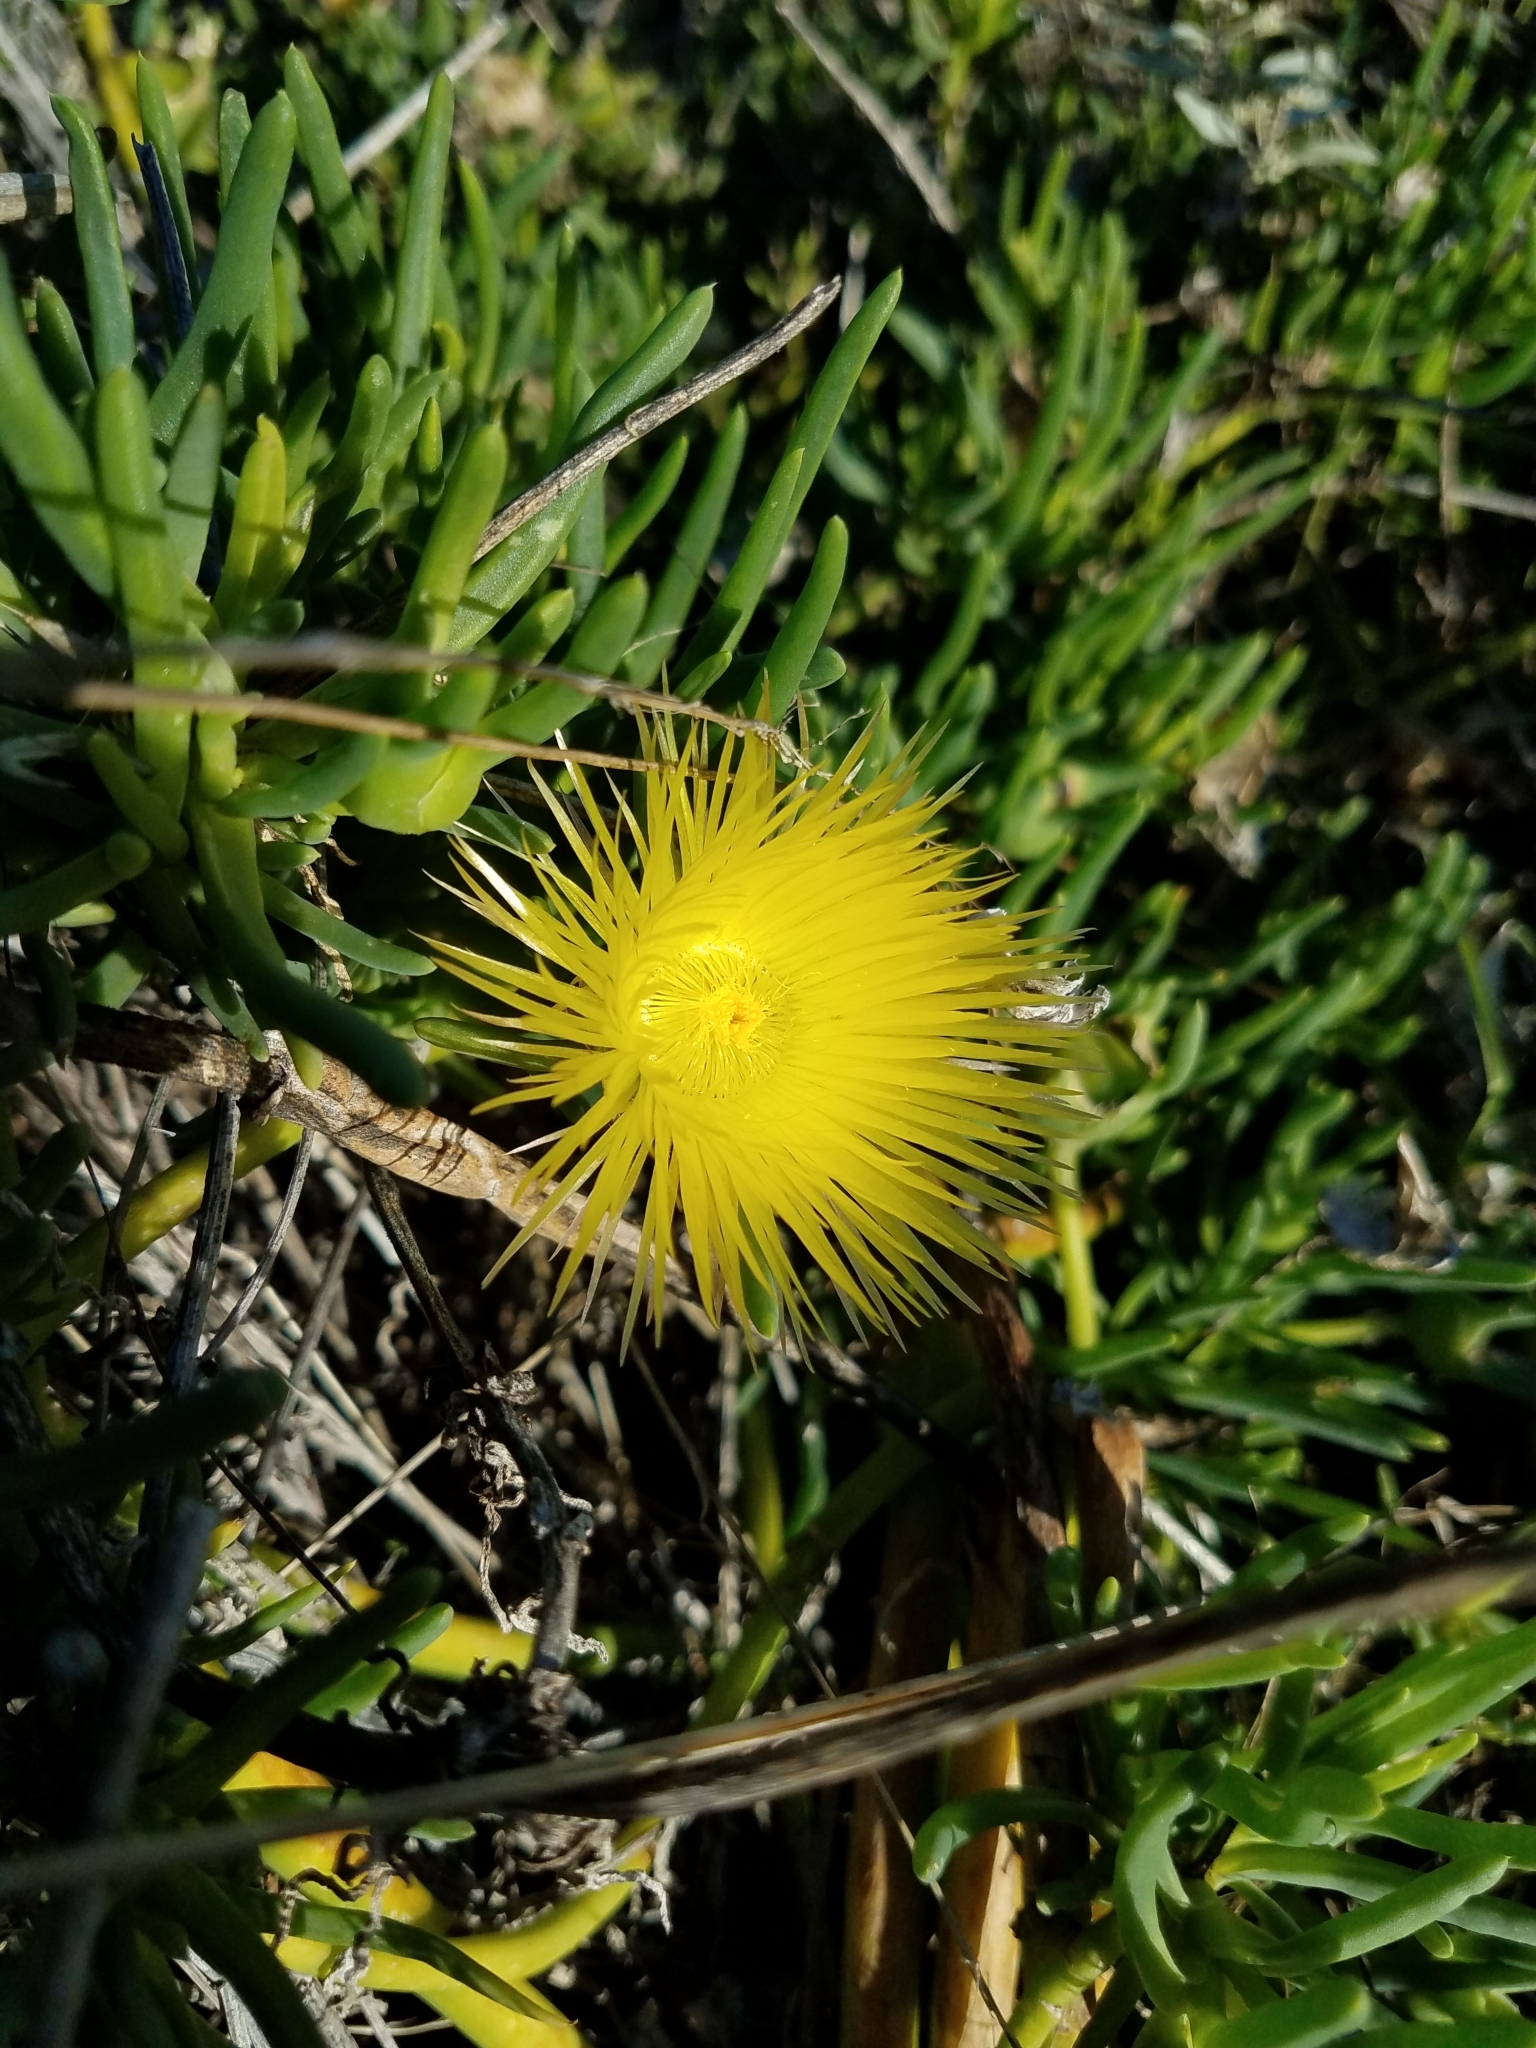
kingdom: Plantae
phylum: Tracheophyta
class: Magnoliopsida
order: Caryophyllales
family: Aizoaceae
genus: Conicosia
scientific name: Conicosia pugioniformis
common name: Narrow-leaved iceplant
